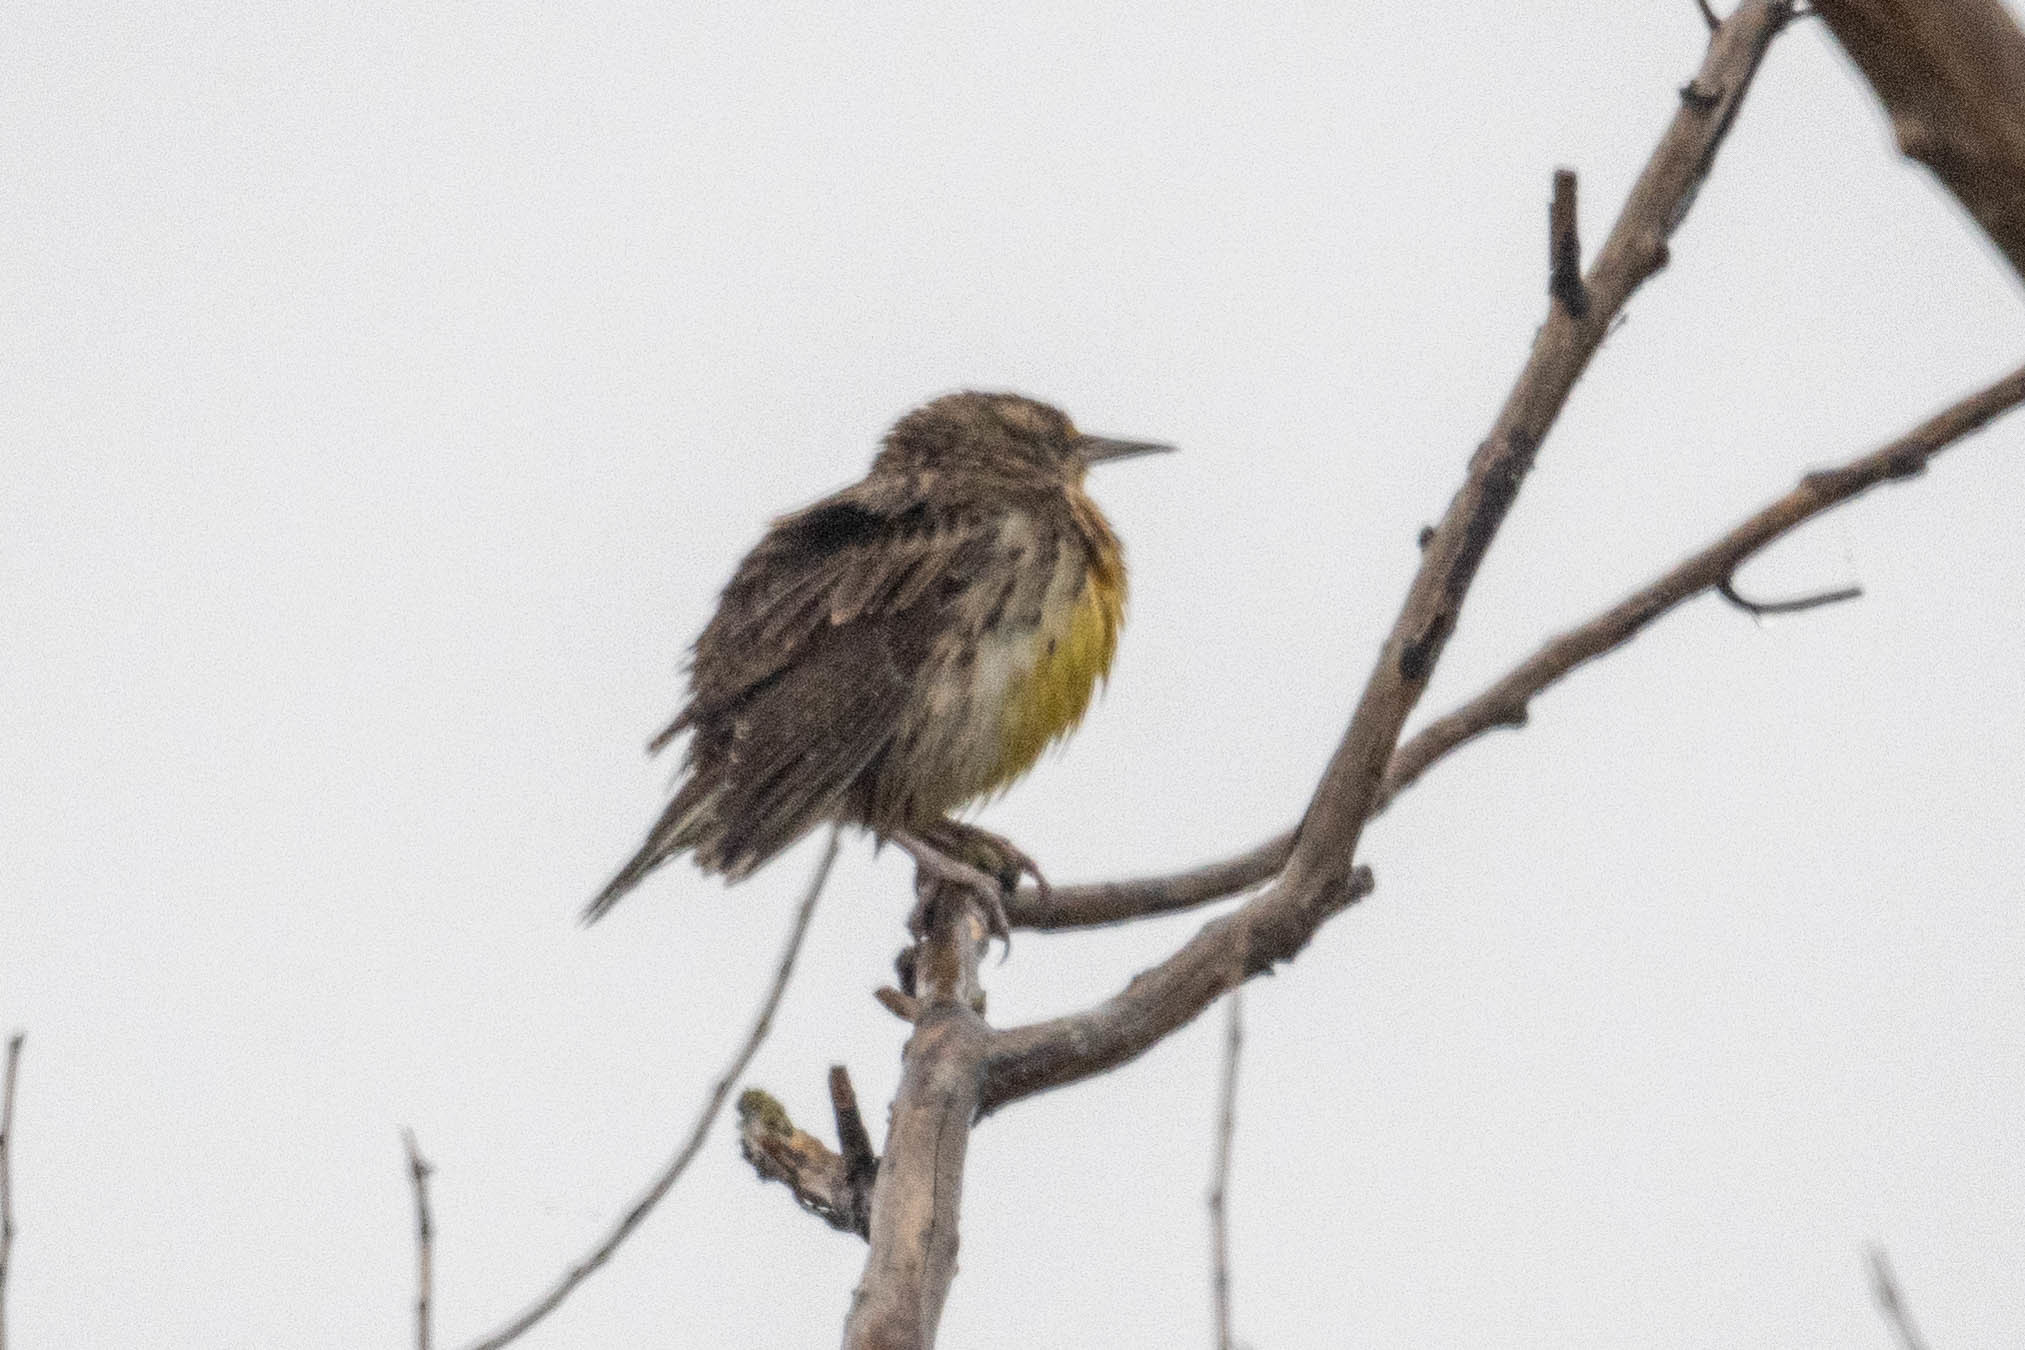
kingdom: Animalia
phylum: Chordata
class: Aves
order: Passeriformes
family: Icteridae
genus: Sturnella
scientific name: Sturnella neglecta
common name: Western meadowlark
